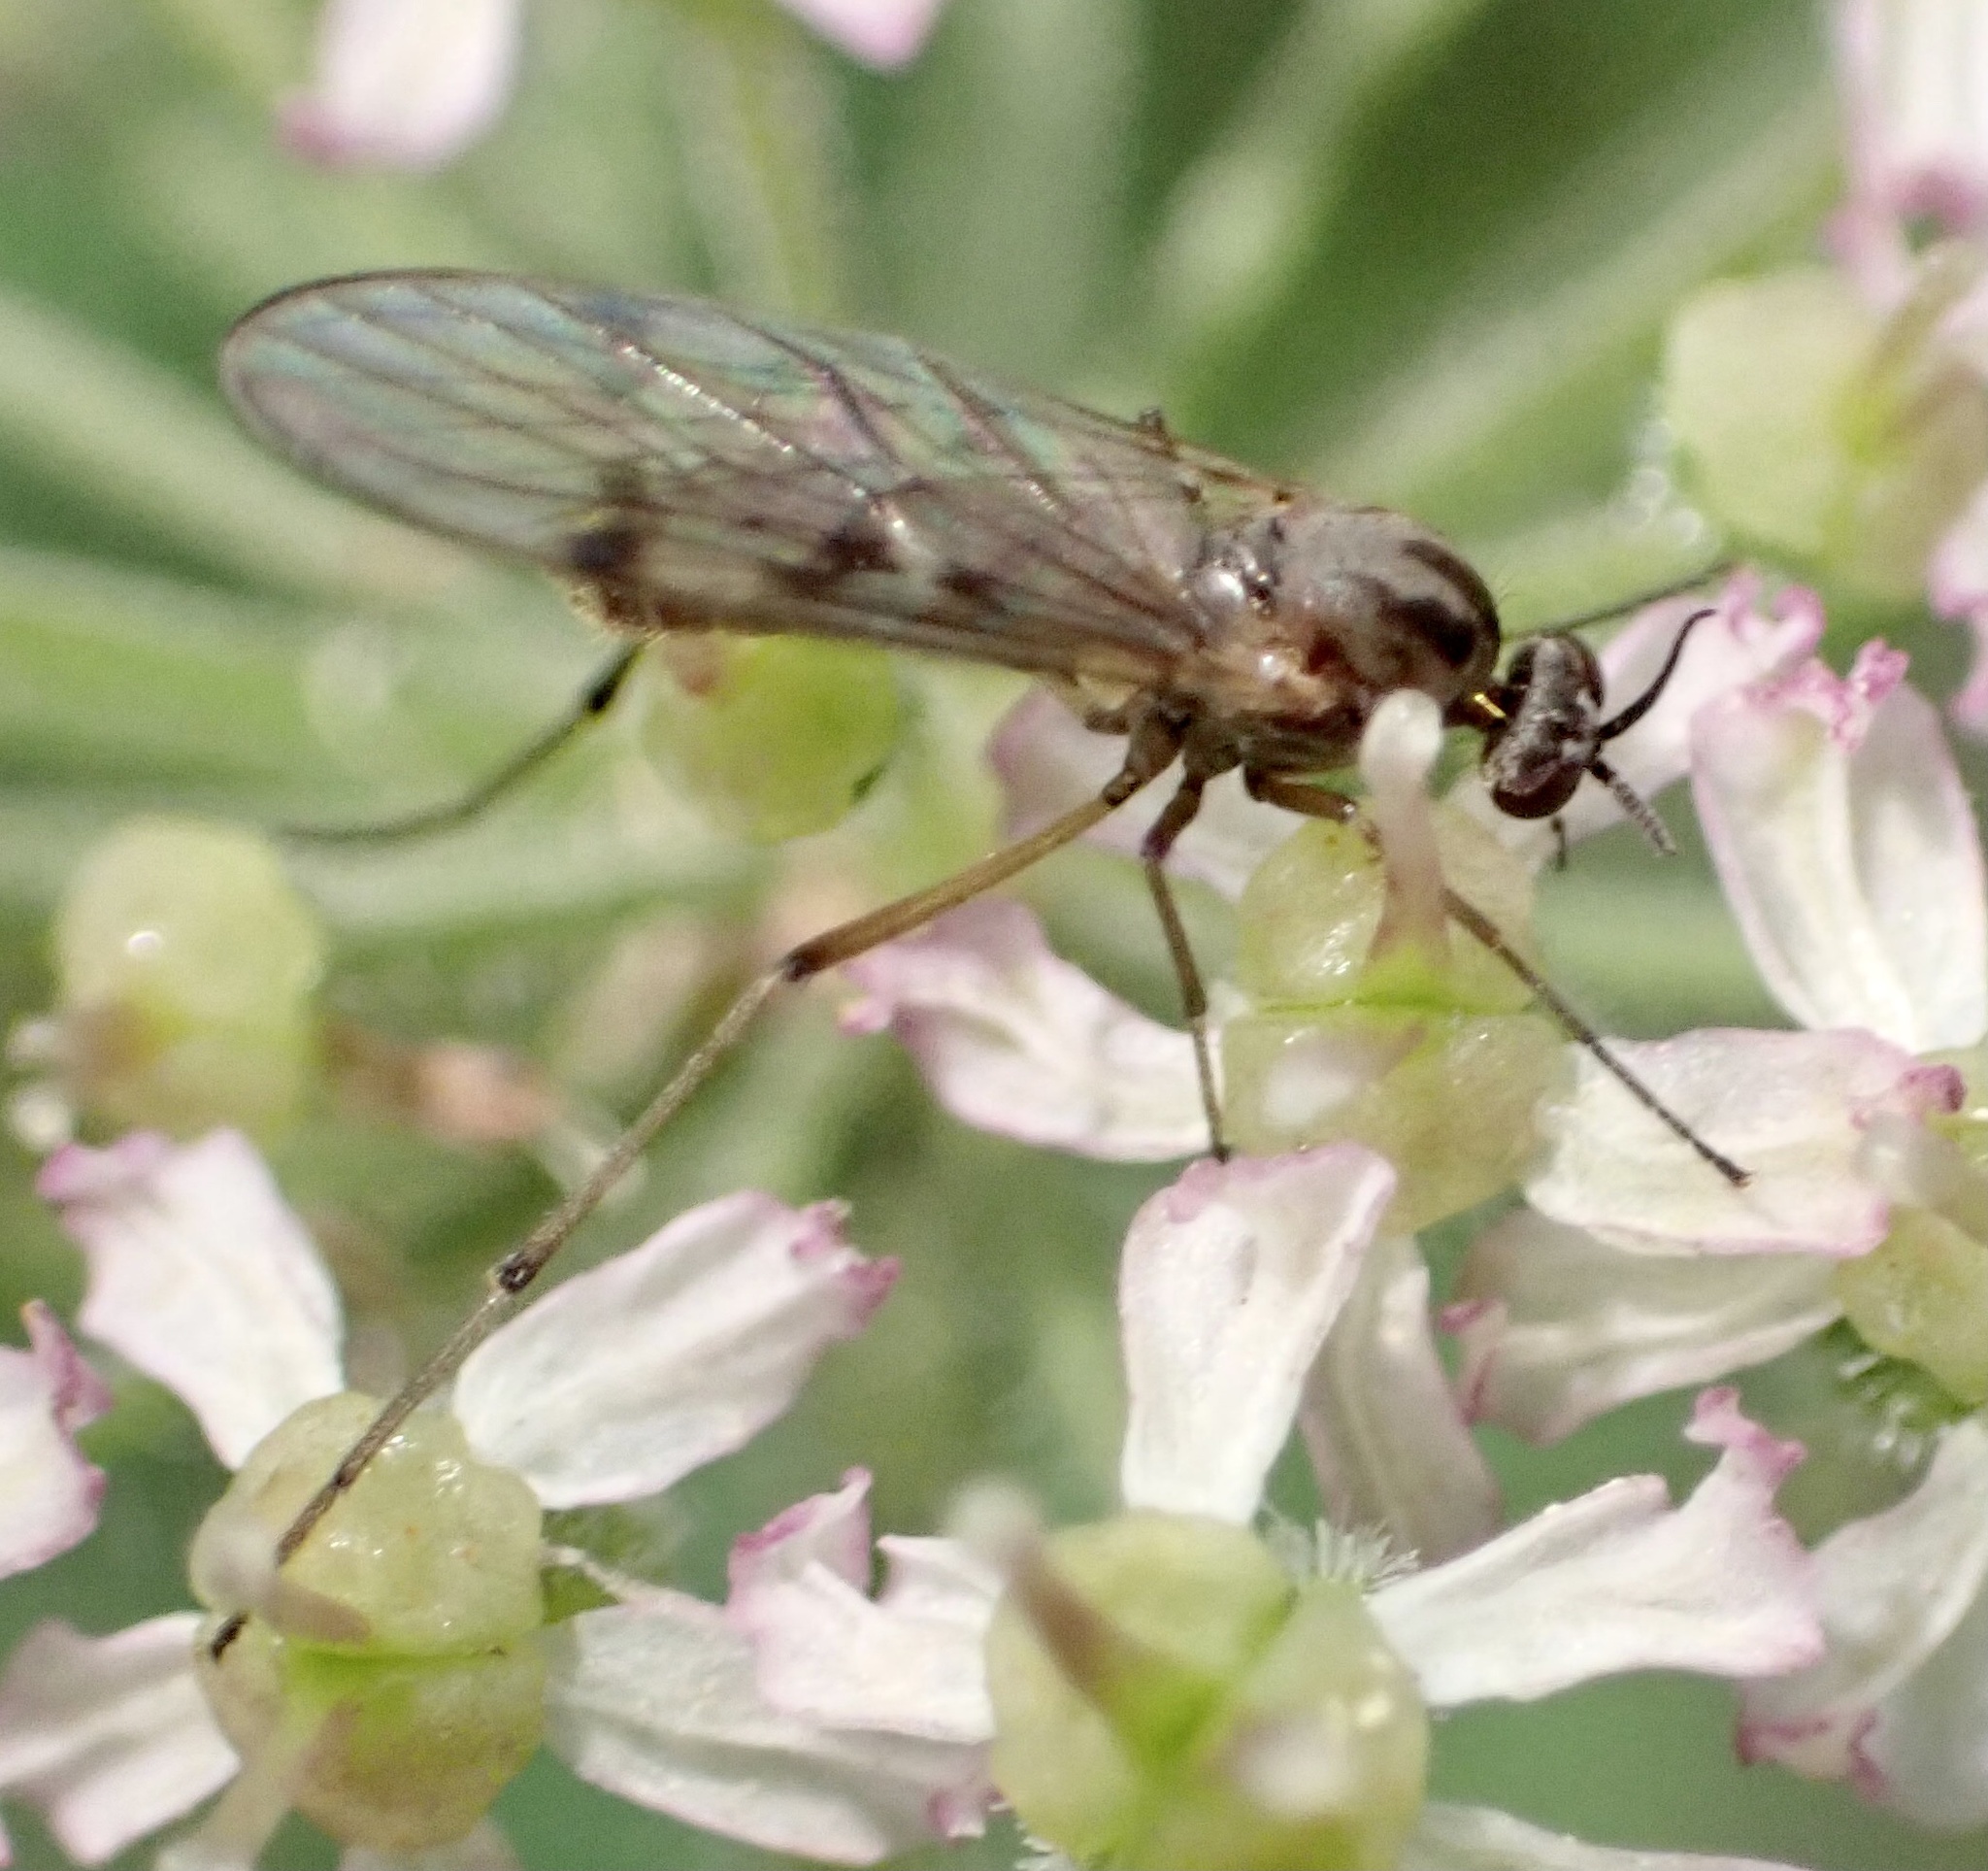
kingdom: Animalia
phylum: Arthropoda
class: Insecta
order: Diptera
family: Anisopodidae
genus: Sylvicola
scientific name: Sylvicola punctatus
